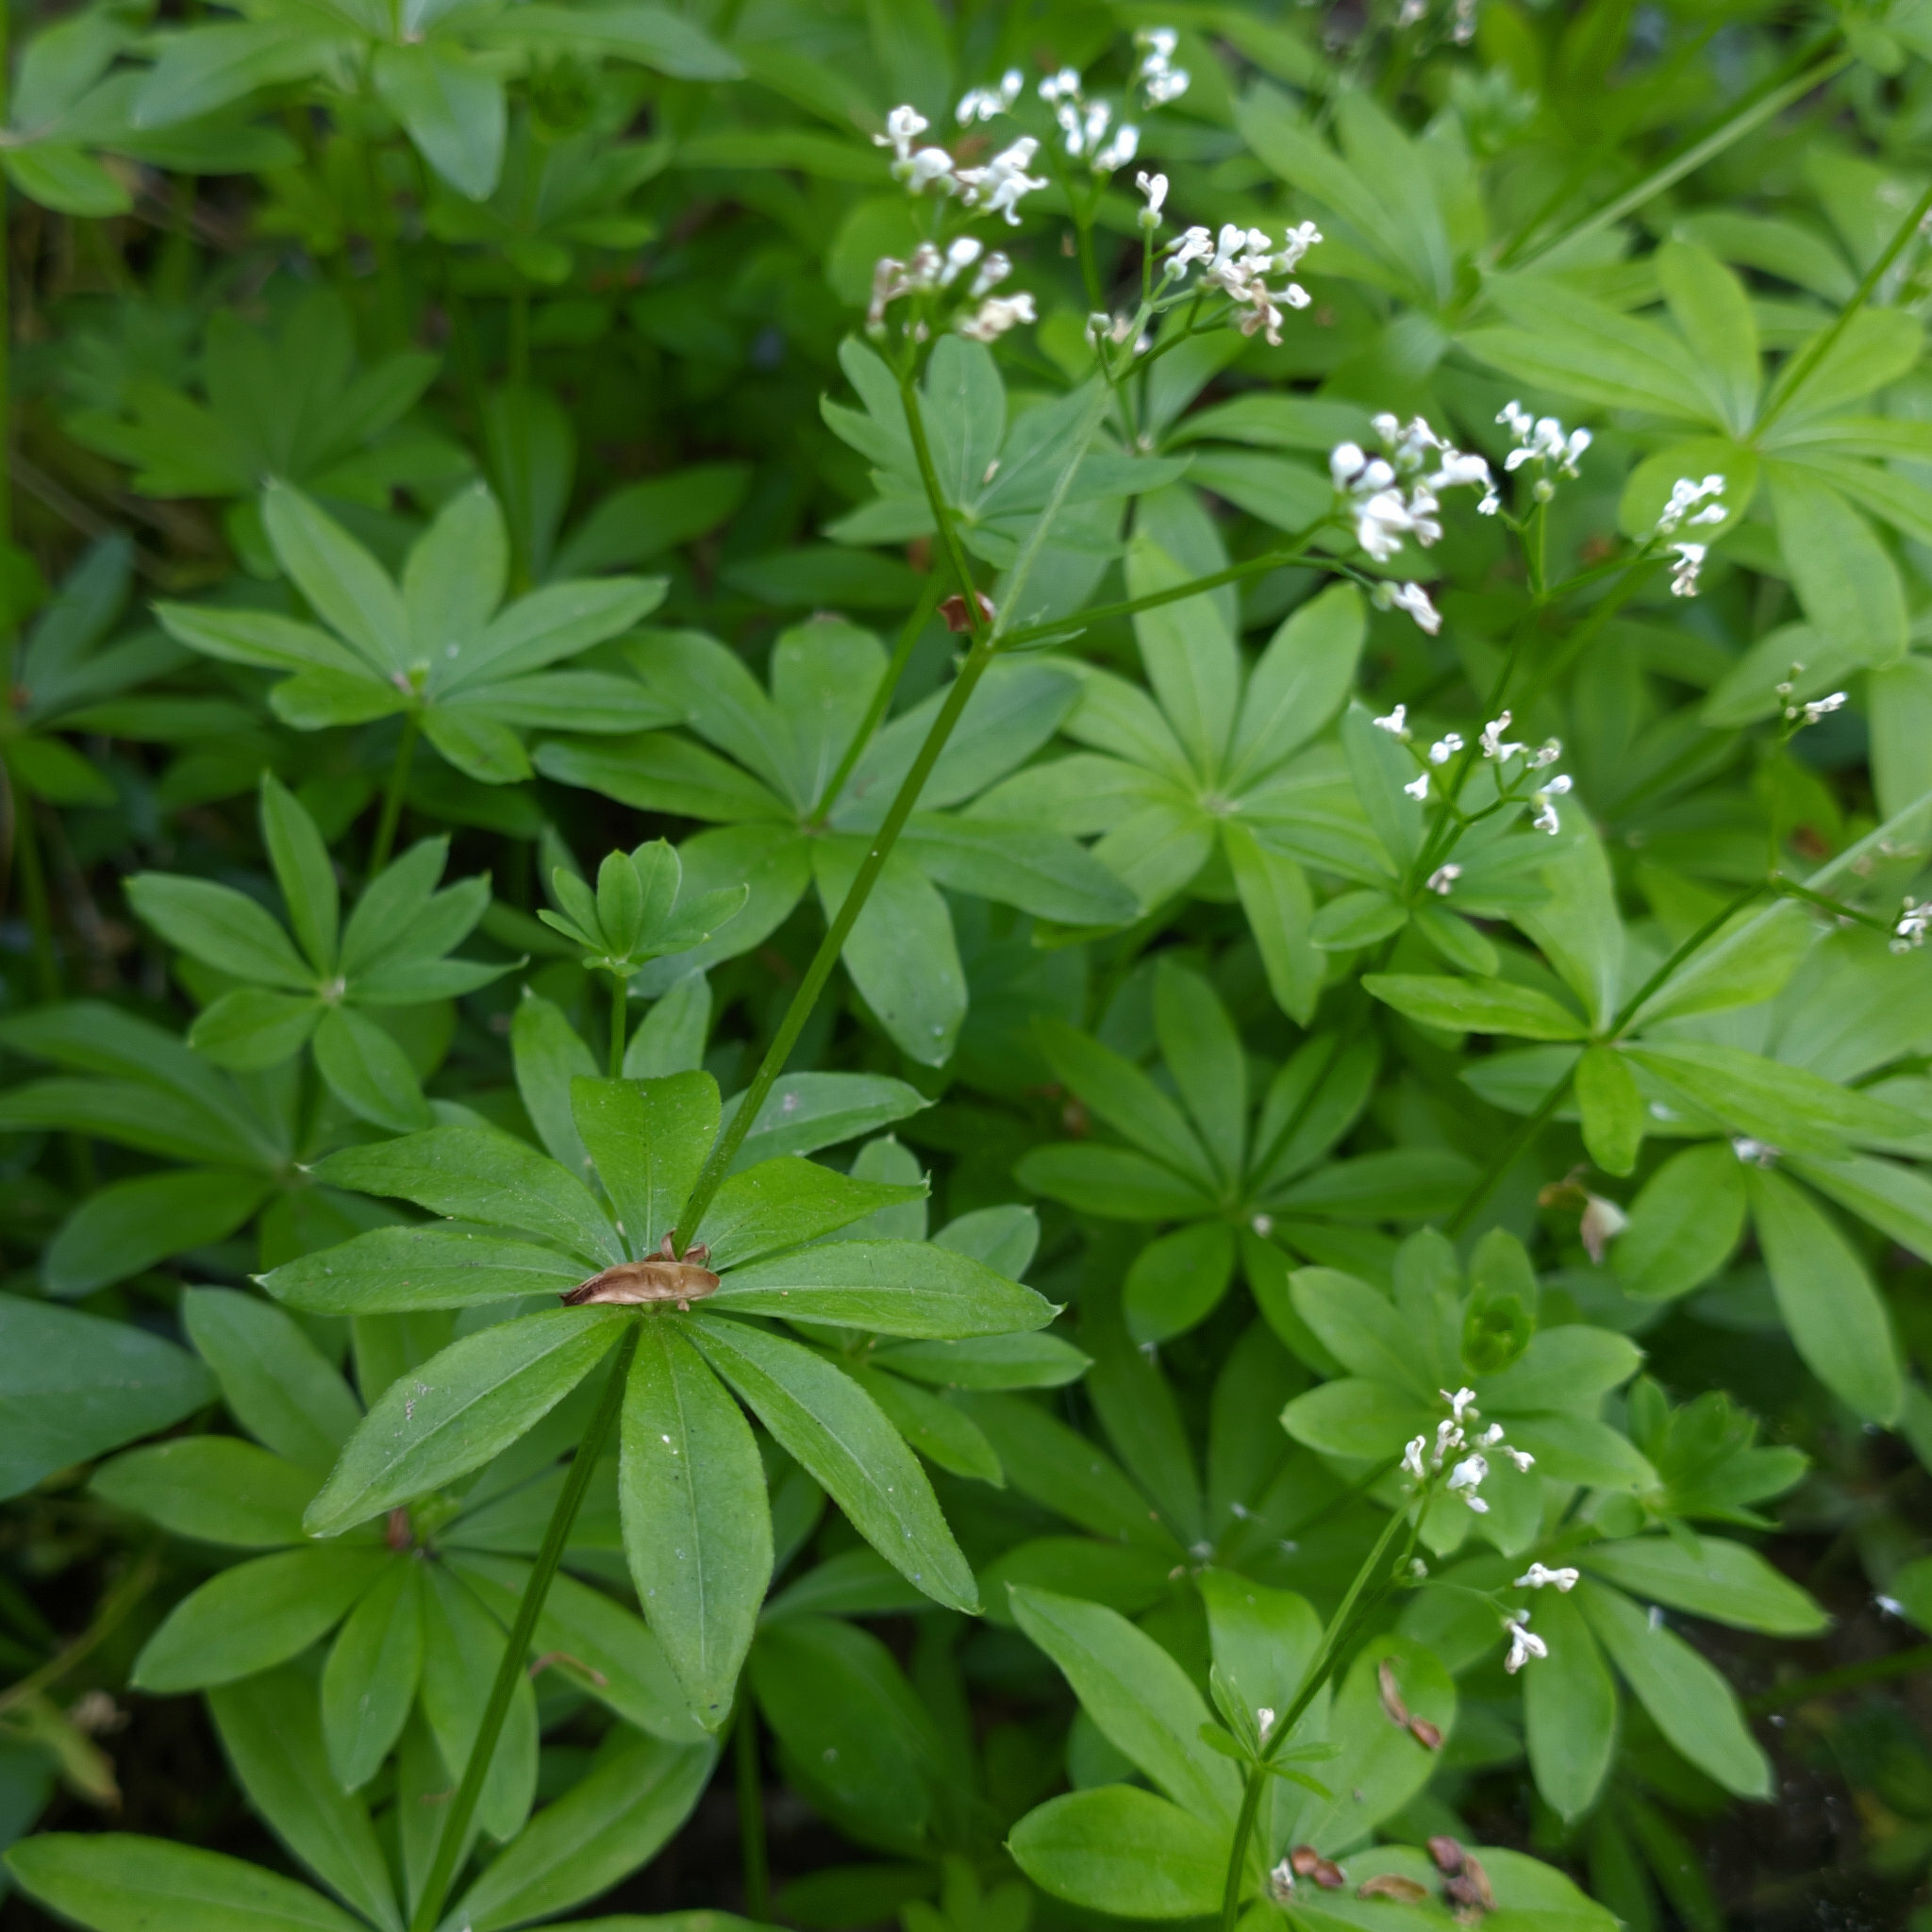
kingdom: Plantae
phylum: Tracheophyta
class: Magnoliopsida
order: Gentianales
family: Rubiaceae
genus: Galium
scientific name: Galium odoratum
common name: Sweet woodruff
